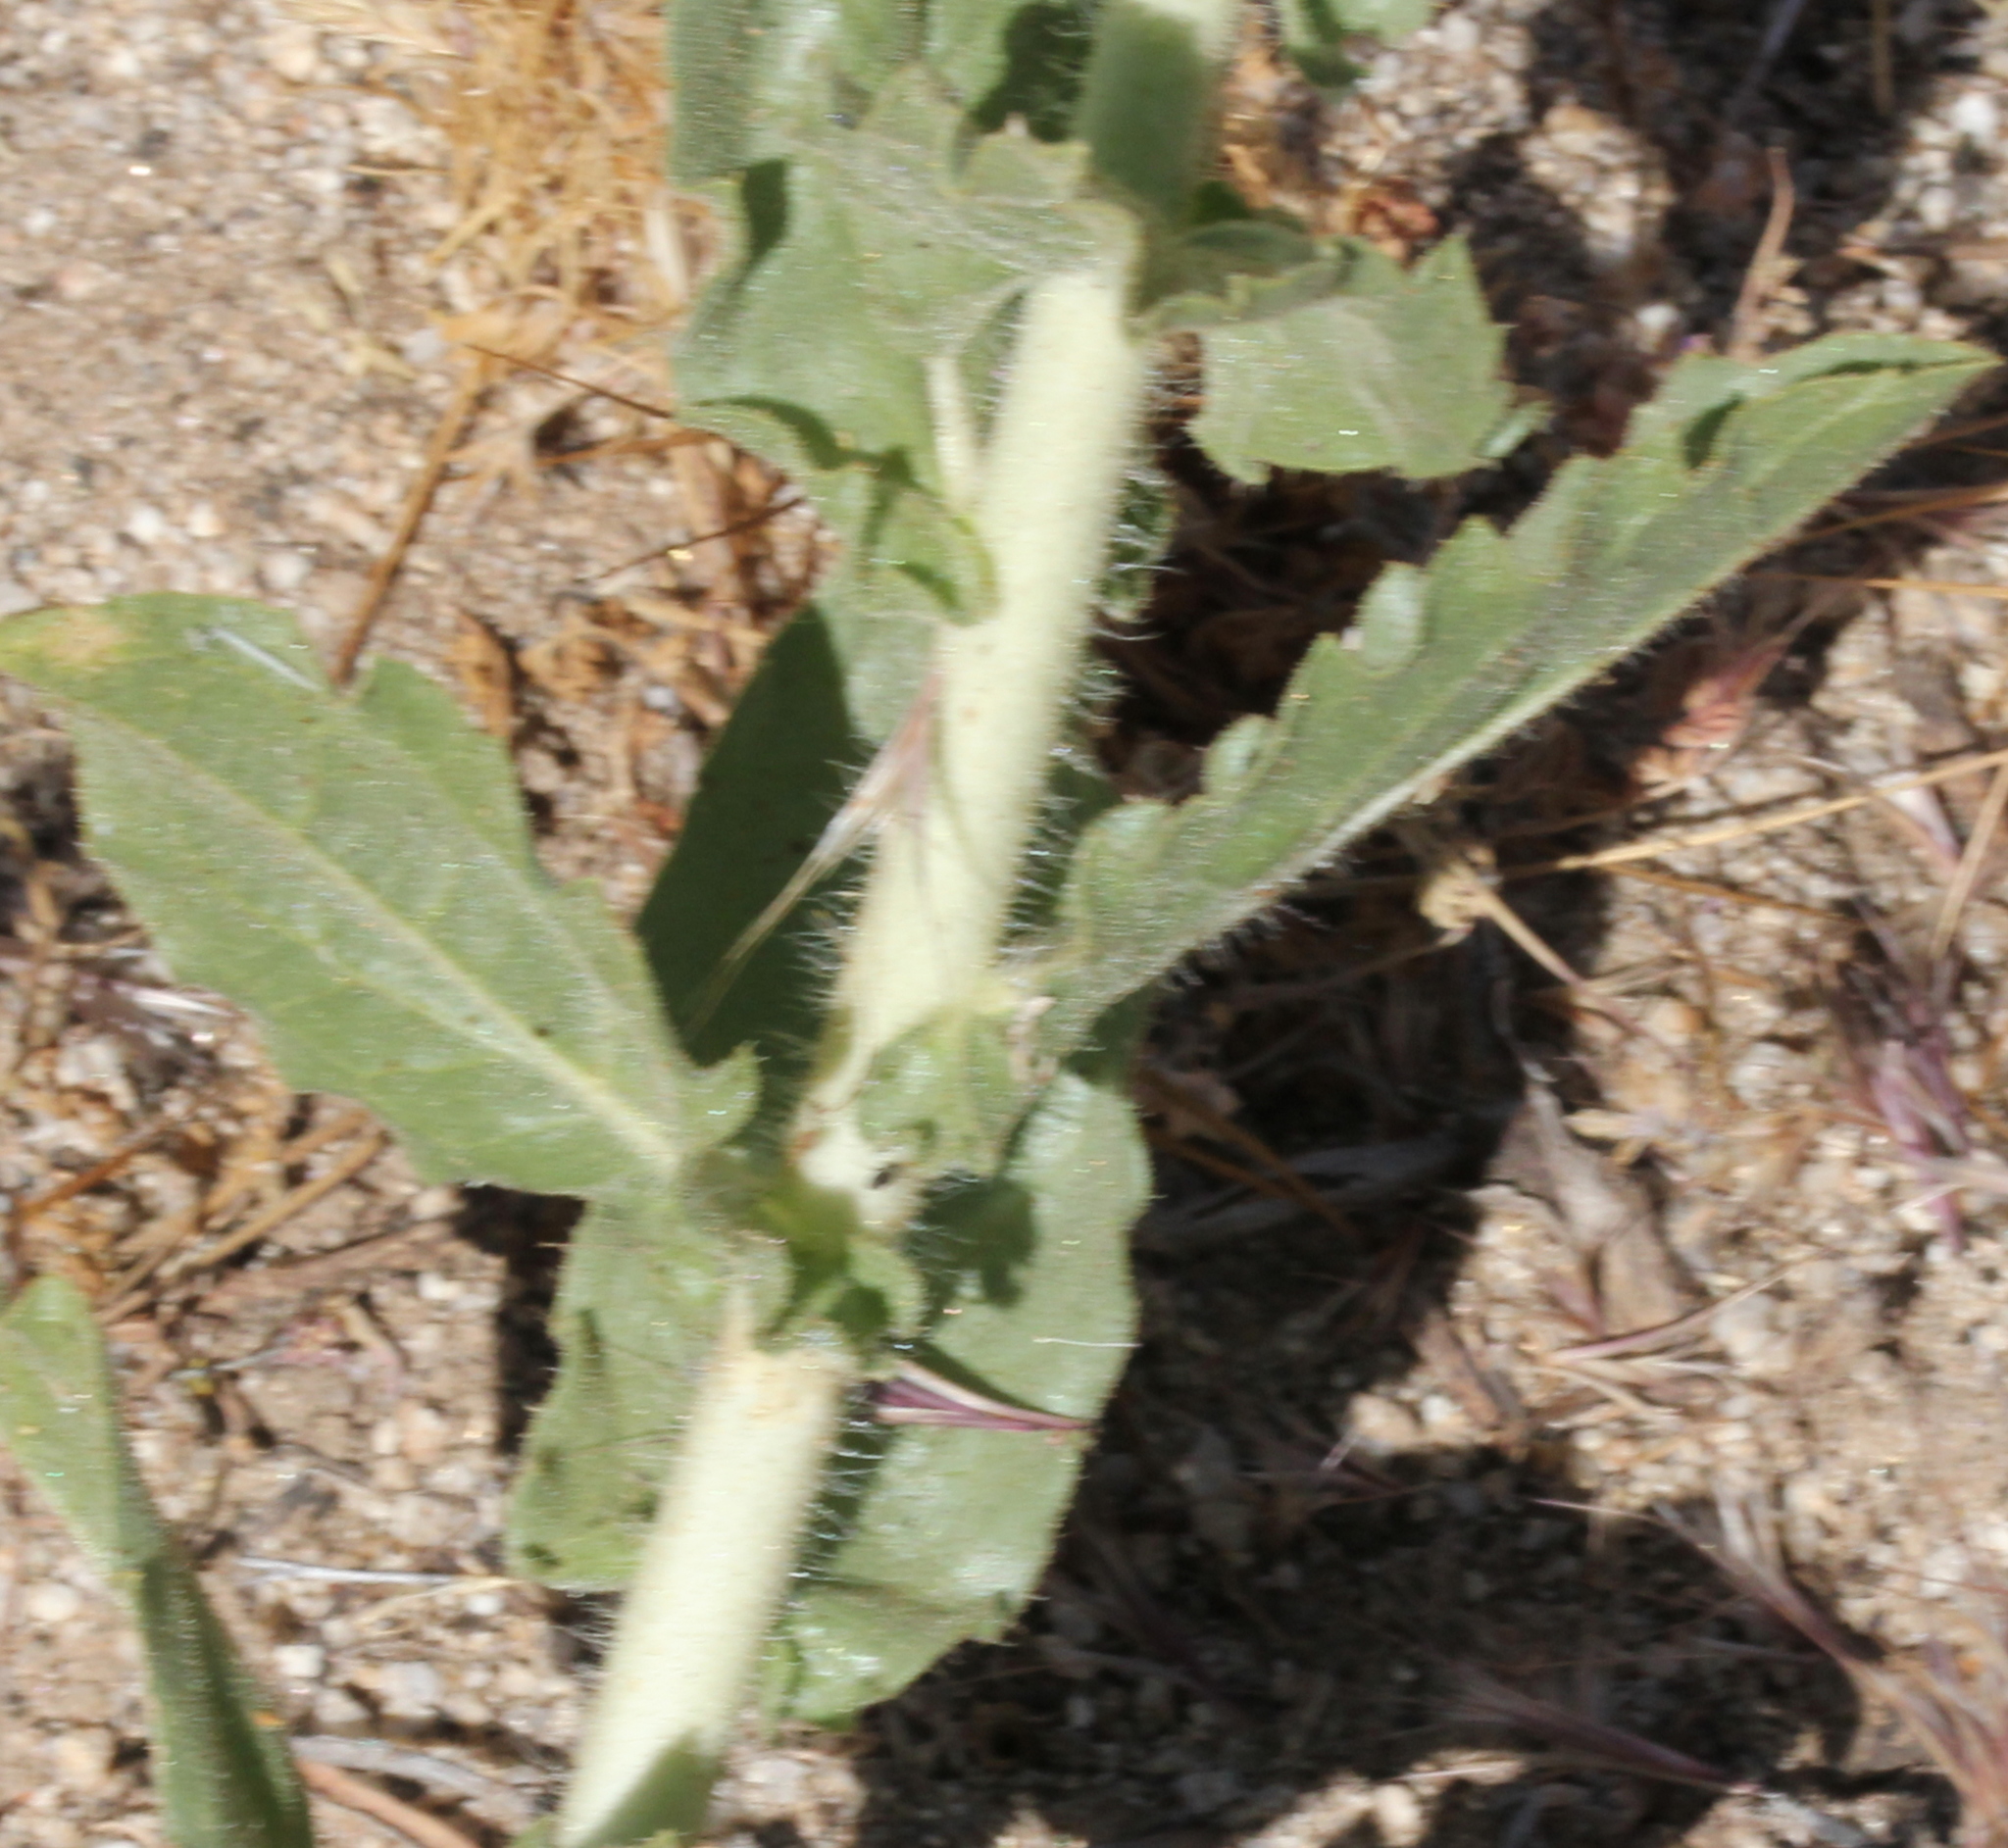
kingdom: Plantae
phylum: Tracheophyta
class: Magnoliopsida
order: Asterales
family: Asteraceae
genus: Geraea
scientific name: Geraea viscida
